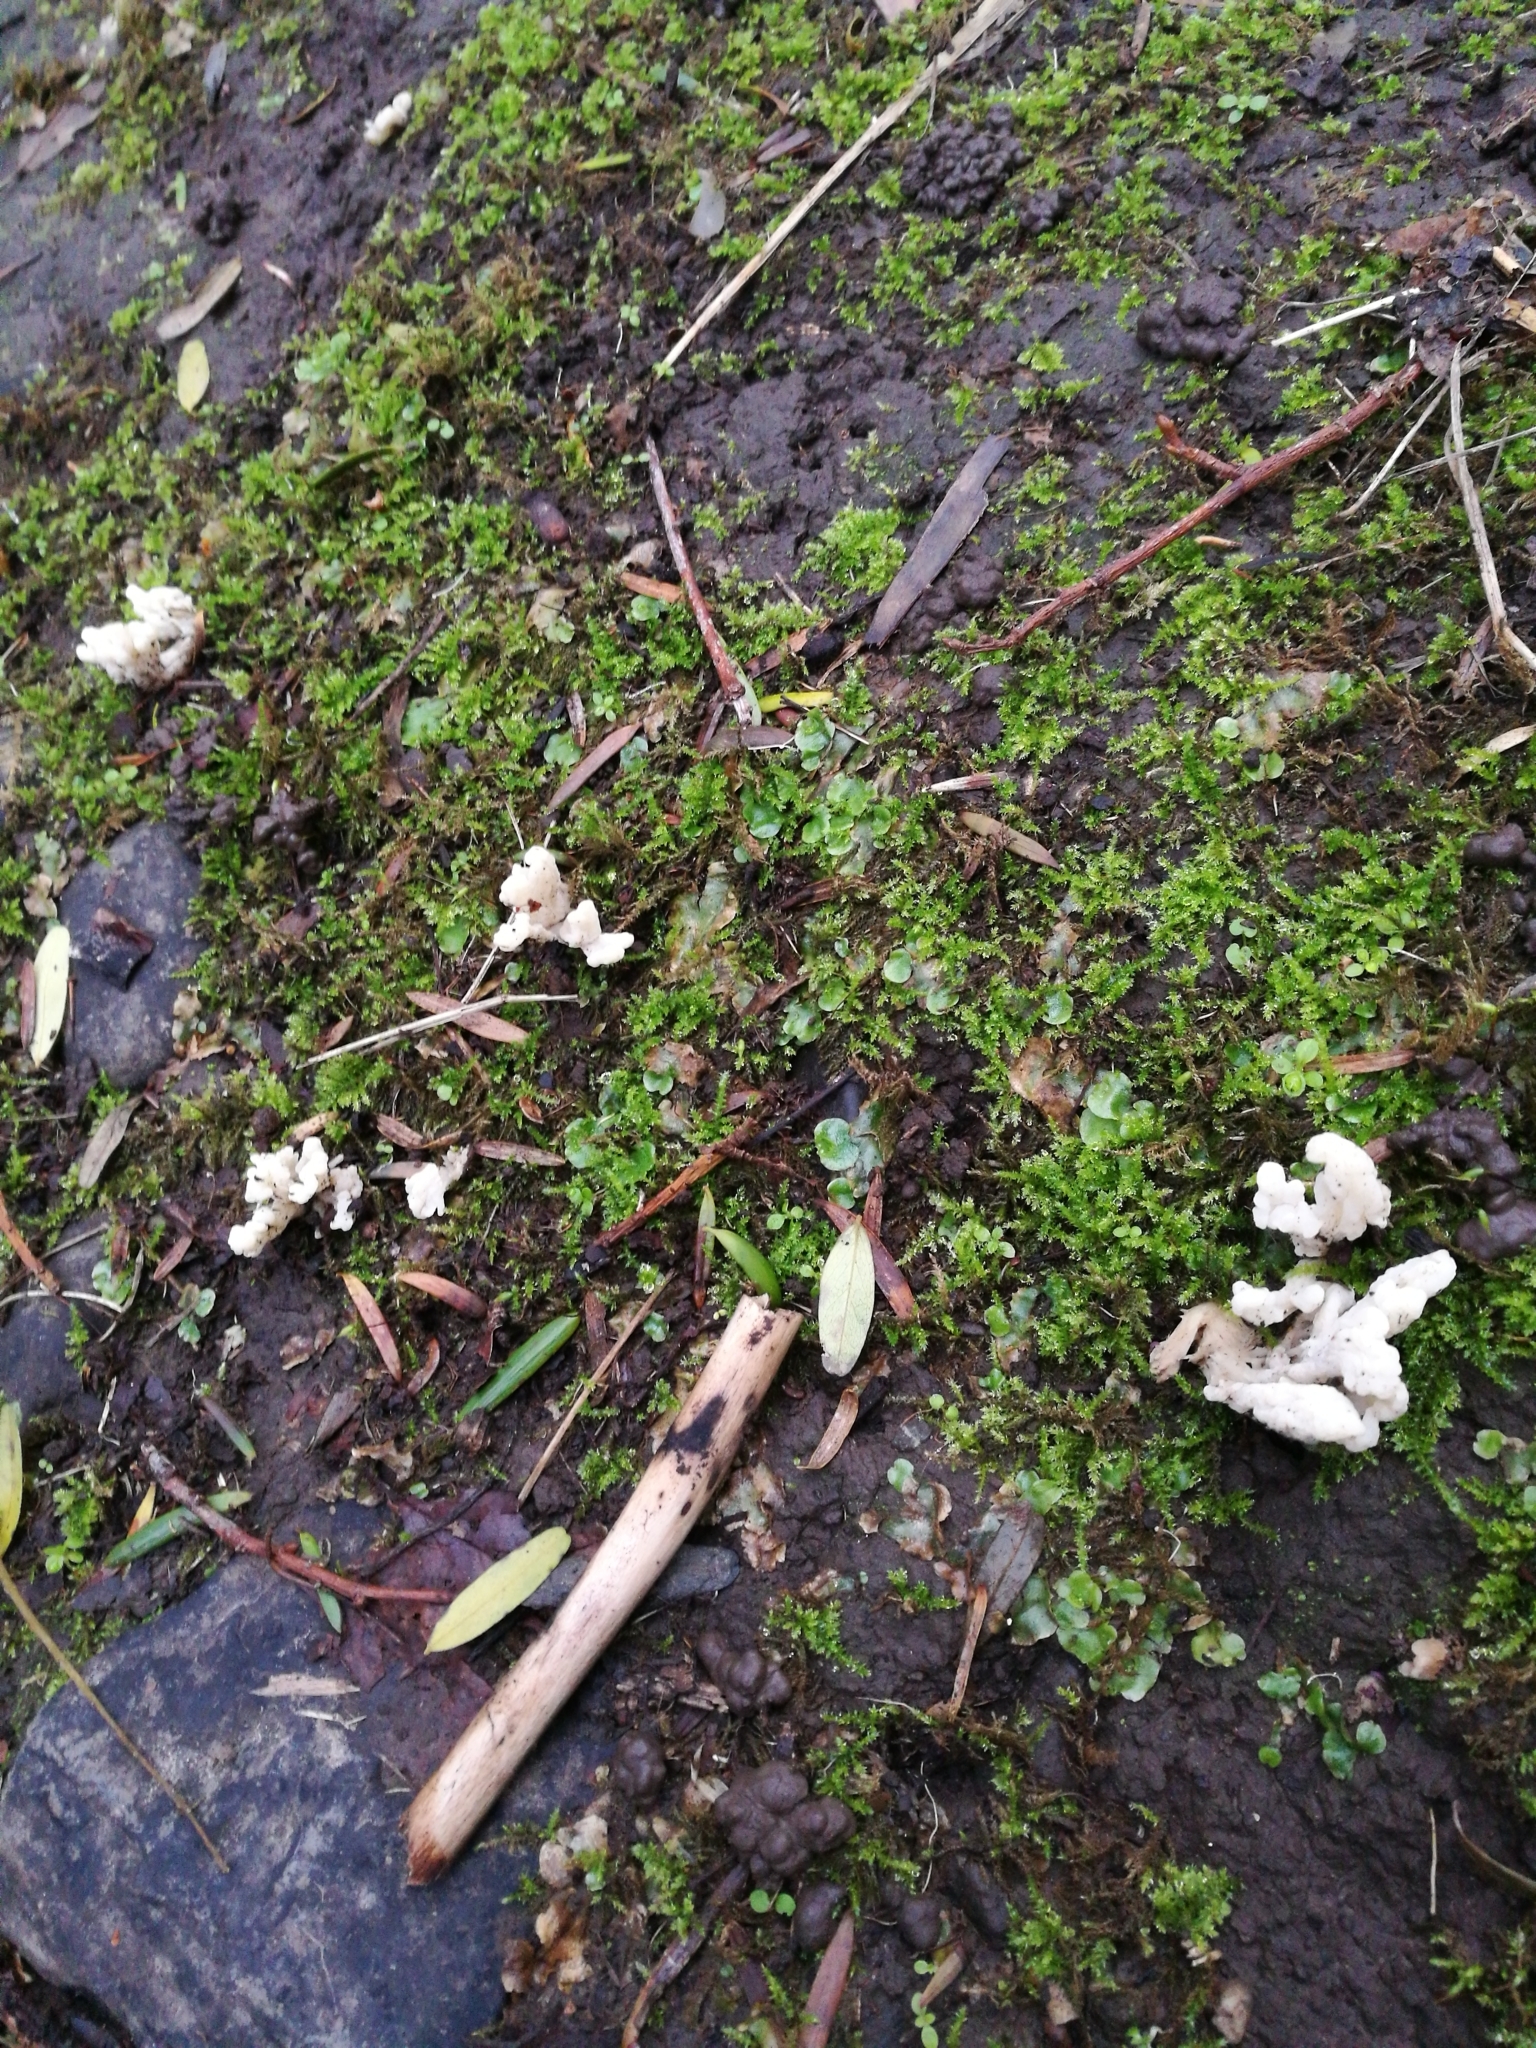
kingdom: Fungi
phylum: Basidiomycota
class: Agaricomycetes
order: Cantharellales
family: Hydnaceae
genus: Clavulina
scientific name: Clavulina rugosa
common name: Wrinkled club
